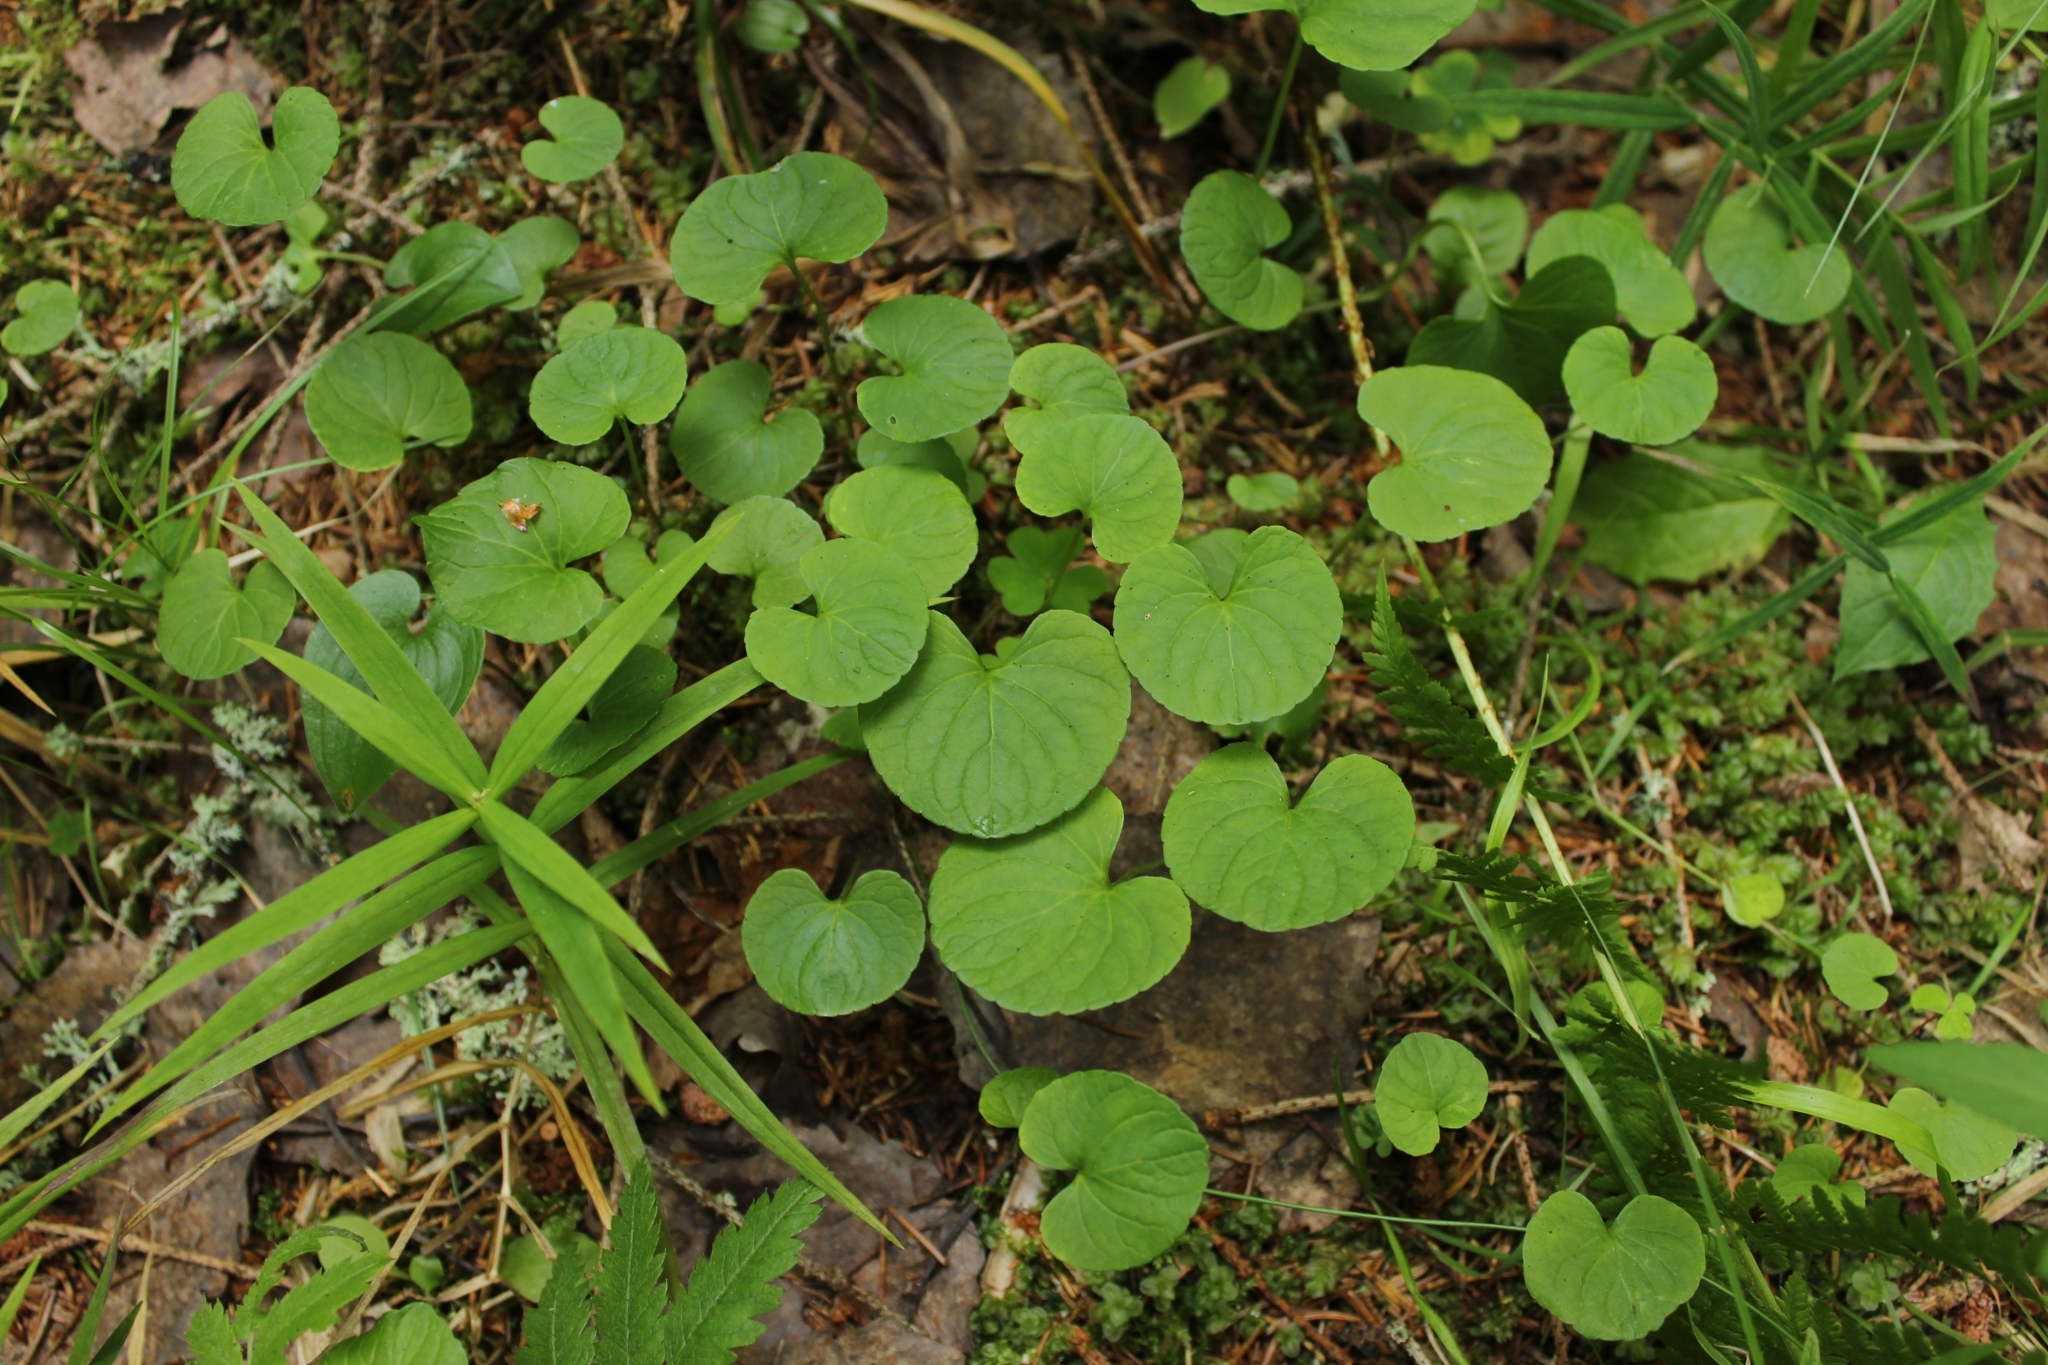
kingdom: Plantae
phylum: Tracheophyta
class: Magnoliopsida
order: Malpighiales
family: Violaceae
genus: Viola
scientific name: Viola palustris
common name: Marsh violet
